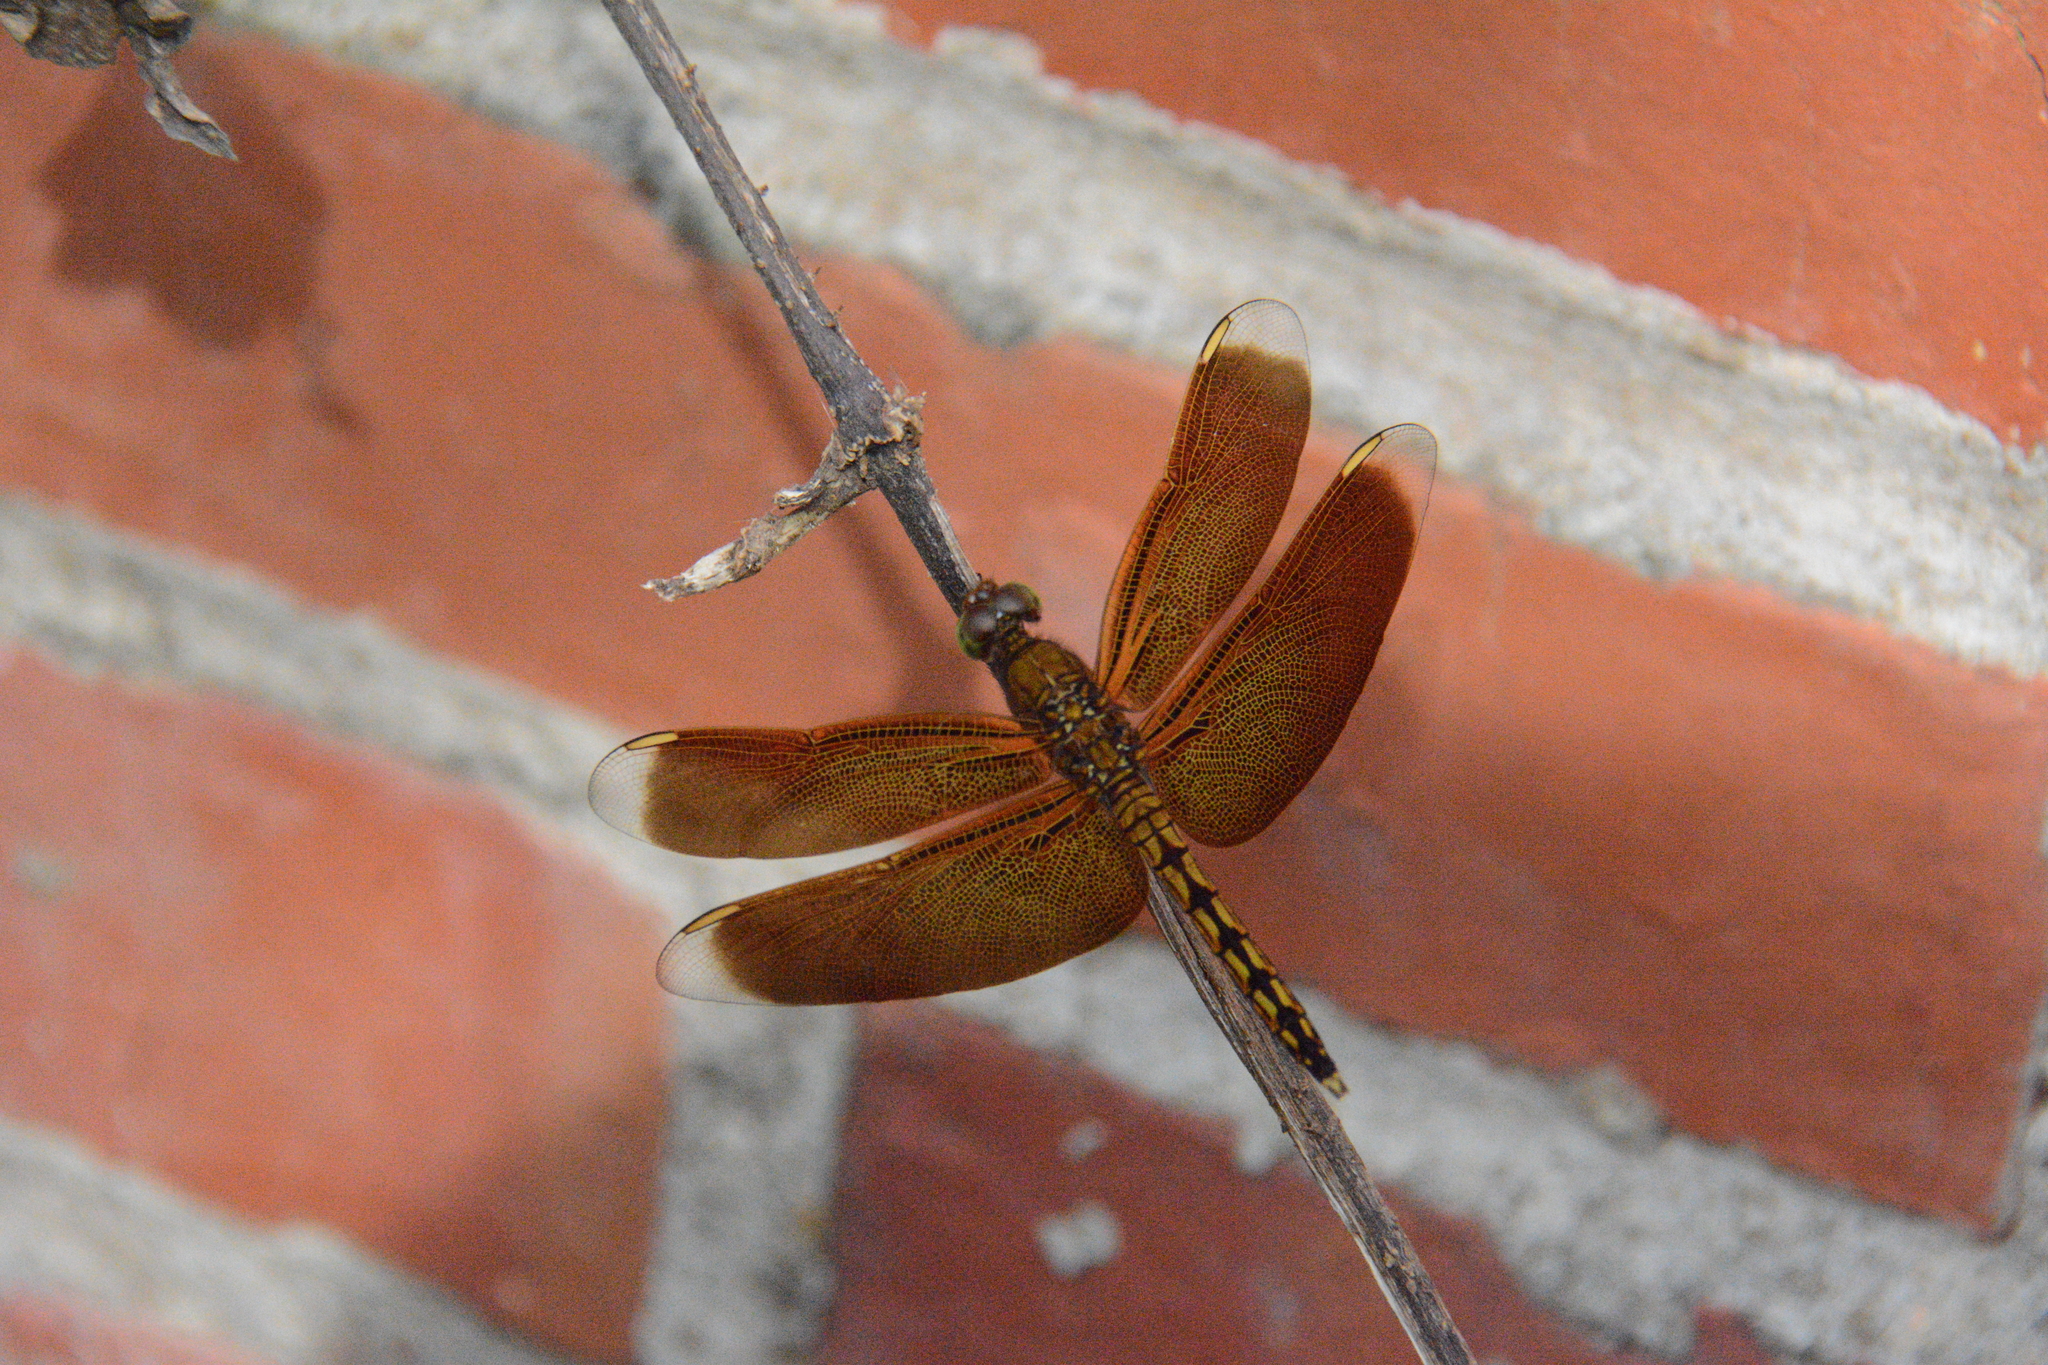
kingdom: Animalia
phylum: Arthropoda
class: Insecta
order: Odonata
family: Libellulidae
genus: Neurothemis
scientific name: Neurothemis taiwanensis
